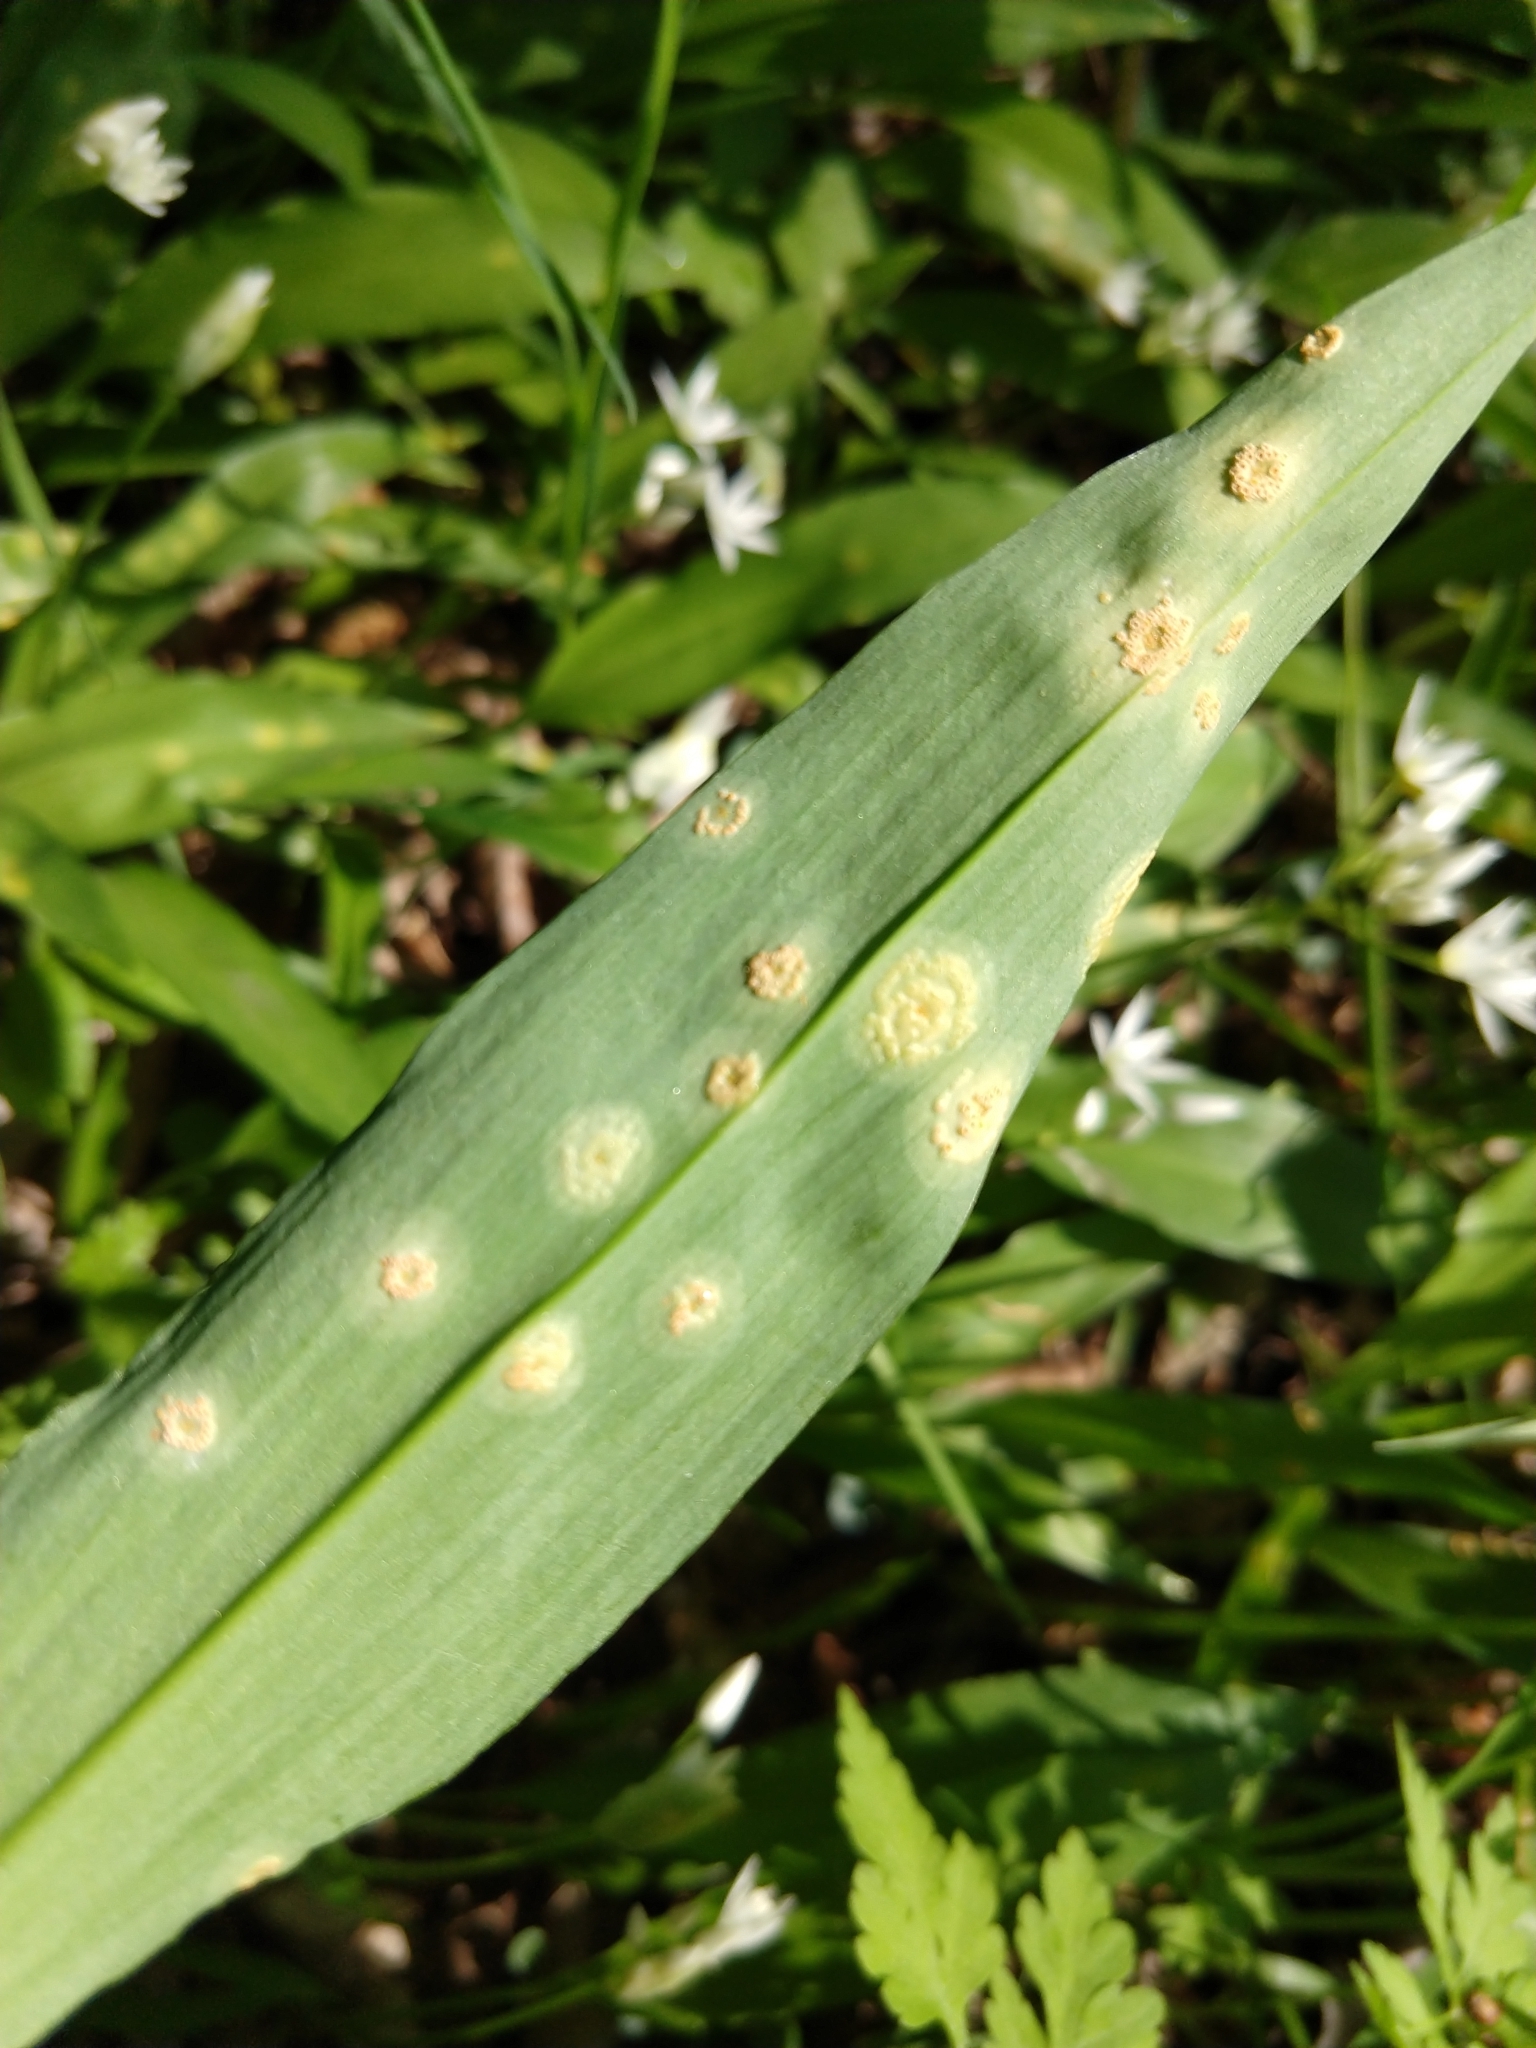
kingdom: Fungi
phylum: Basidiomycota
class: Pucciniomycetes
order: Pucciniales
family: Pucciniaceae
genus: Puccinia
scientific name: Puccinia sessilis
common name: Arum rust
